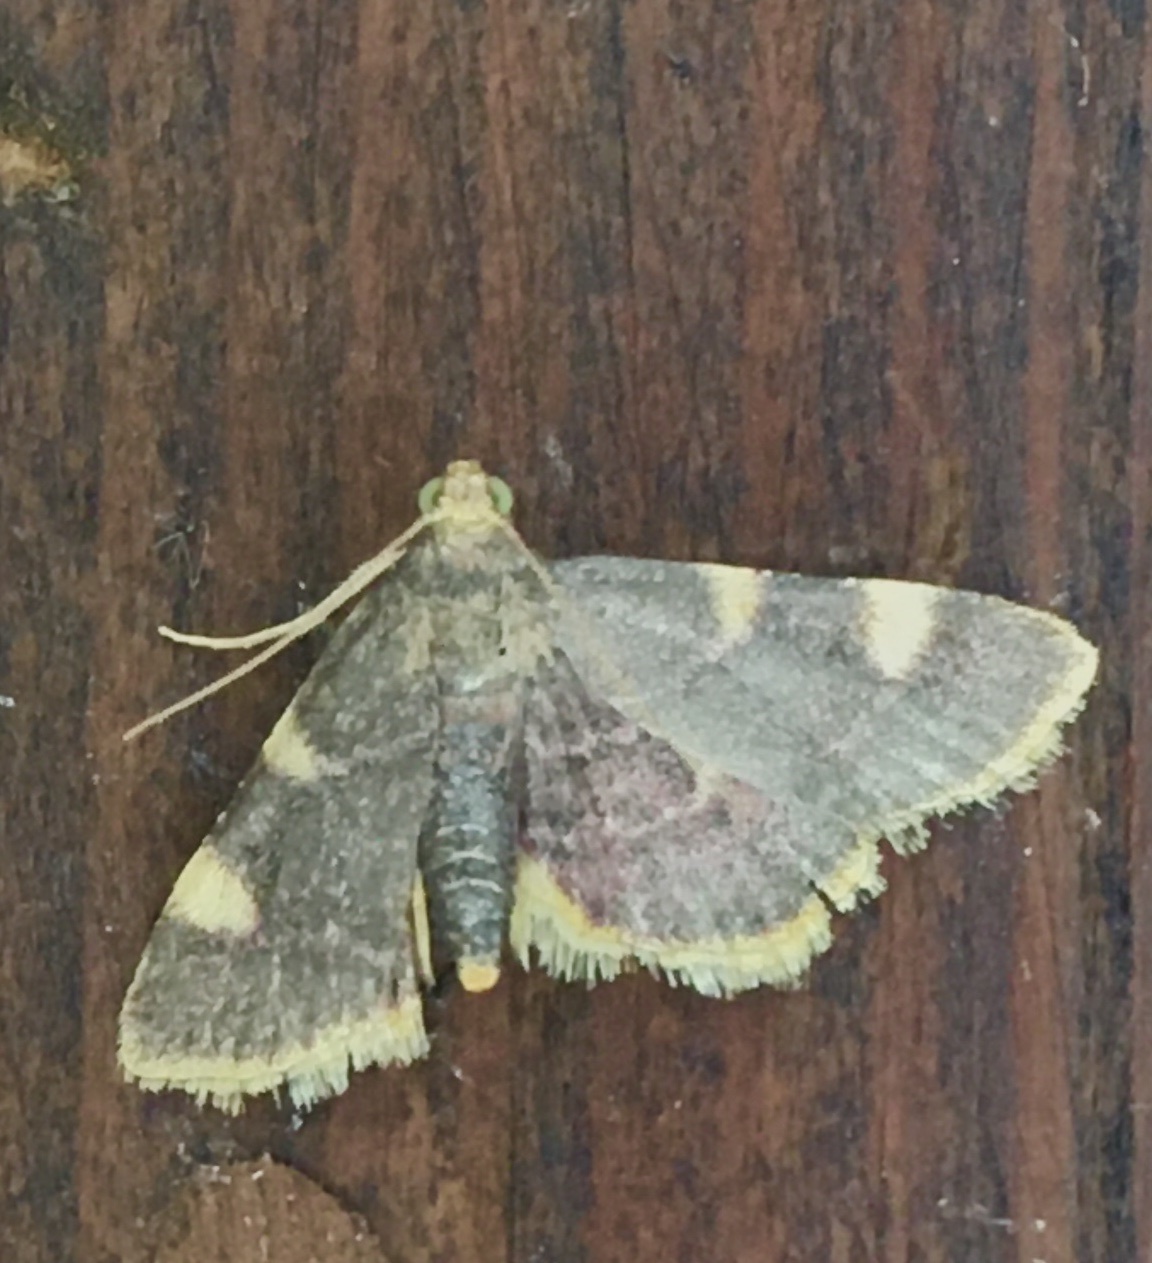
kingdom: Animalia
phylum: Arthropoda
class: Insecta
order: Lepidoptera
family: Pyralidae
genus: Hypsopygia
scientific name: Hypsopygia costalis
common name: Gold triangle
